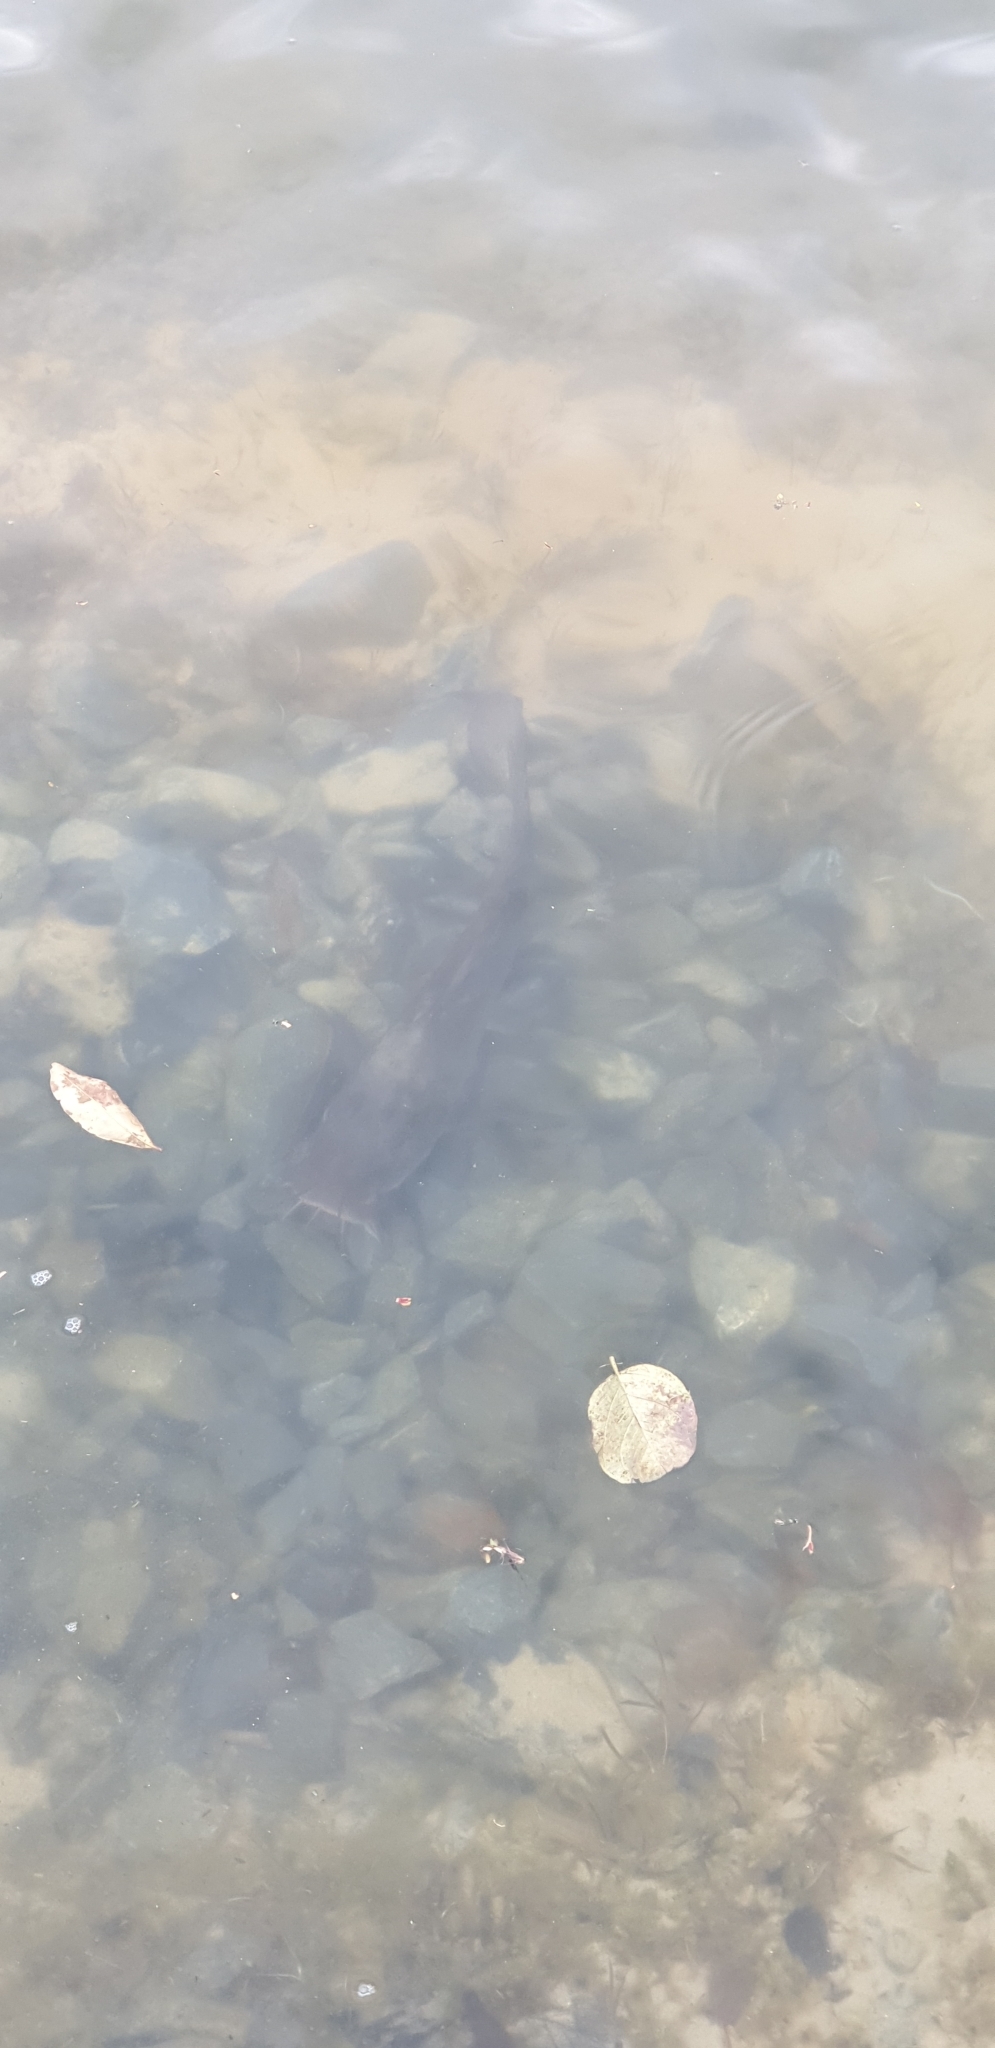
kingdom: Animalia
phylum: Chordata
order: Siluriformes
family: Plotosidae
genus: Tandanus
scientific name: Tandanus tandanus
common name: Eel-tailed catfish
